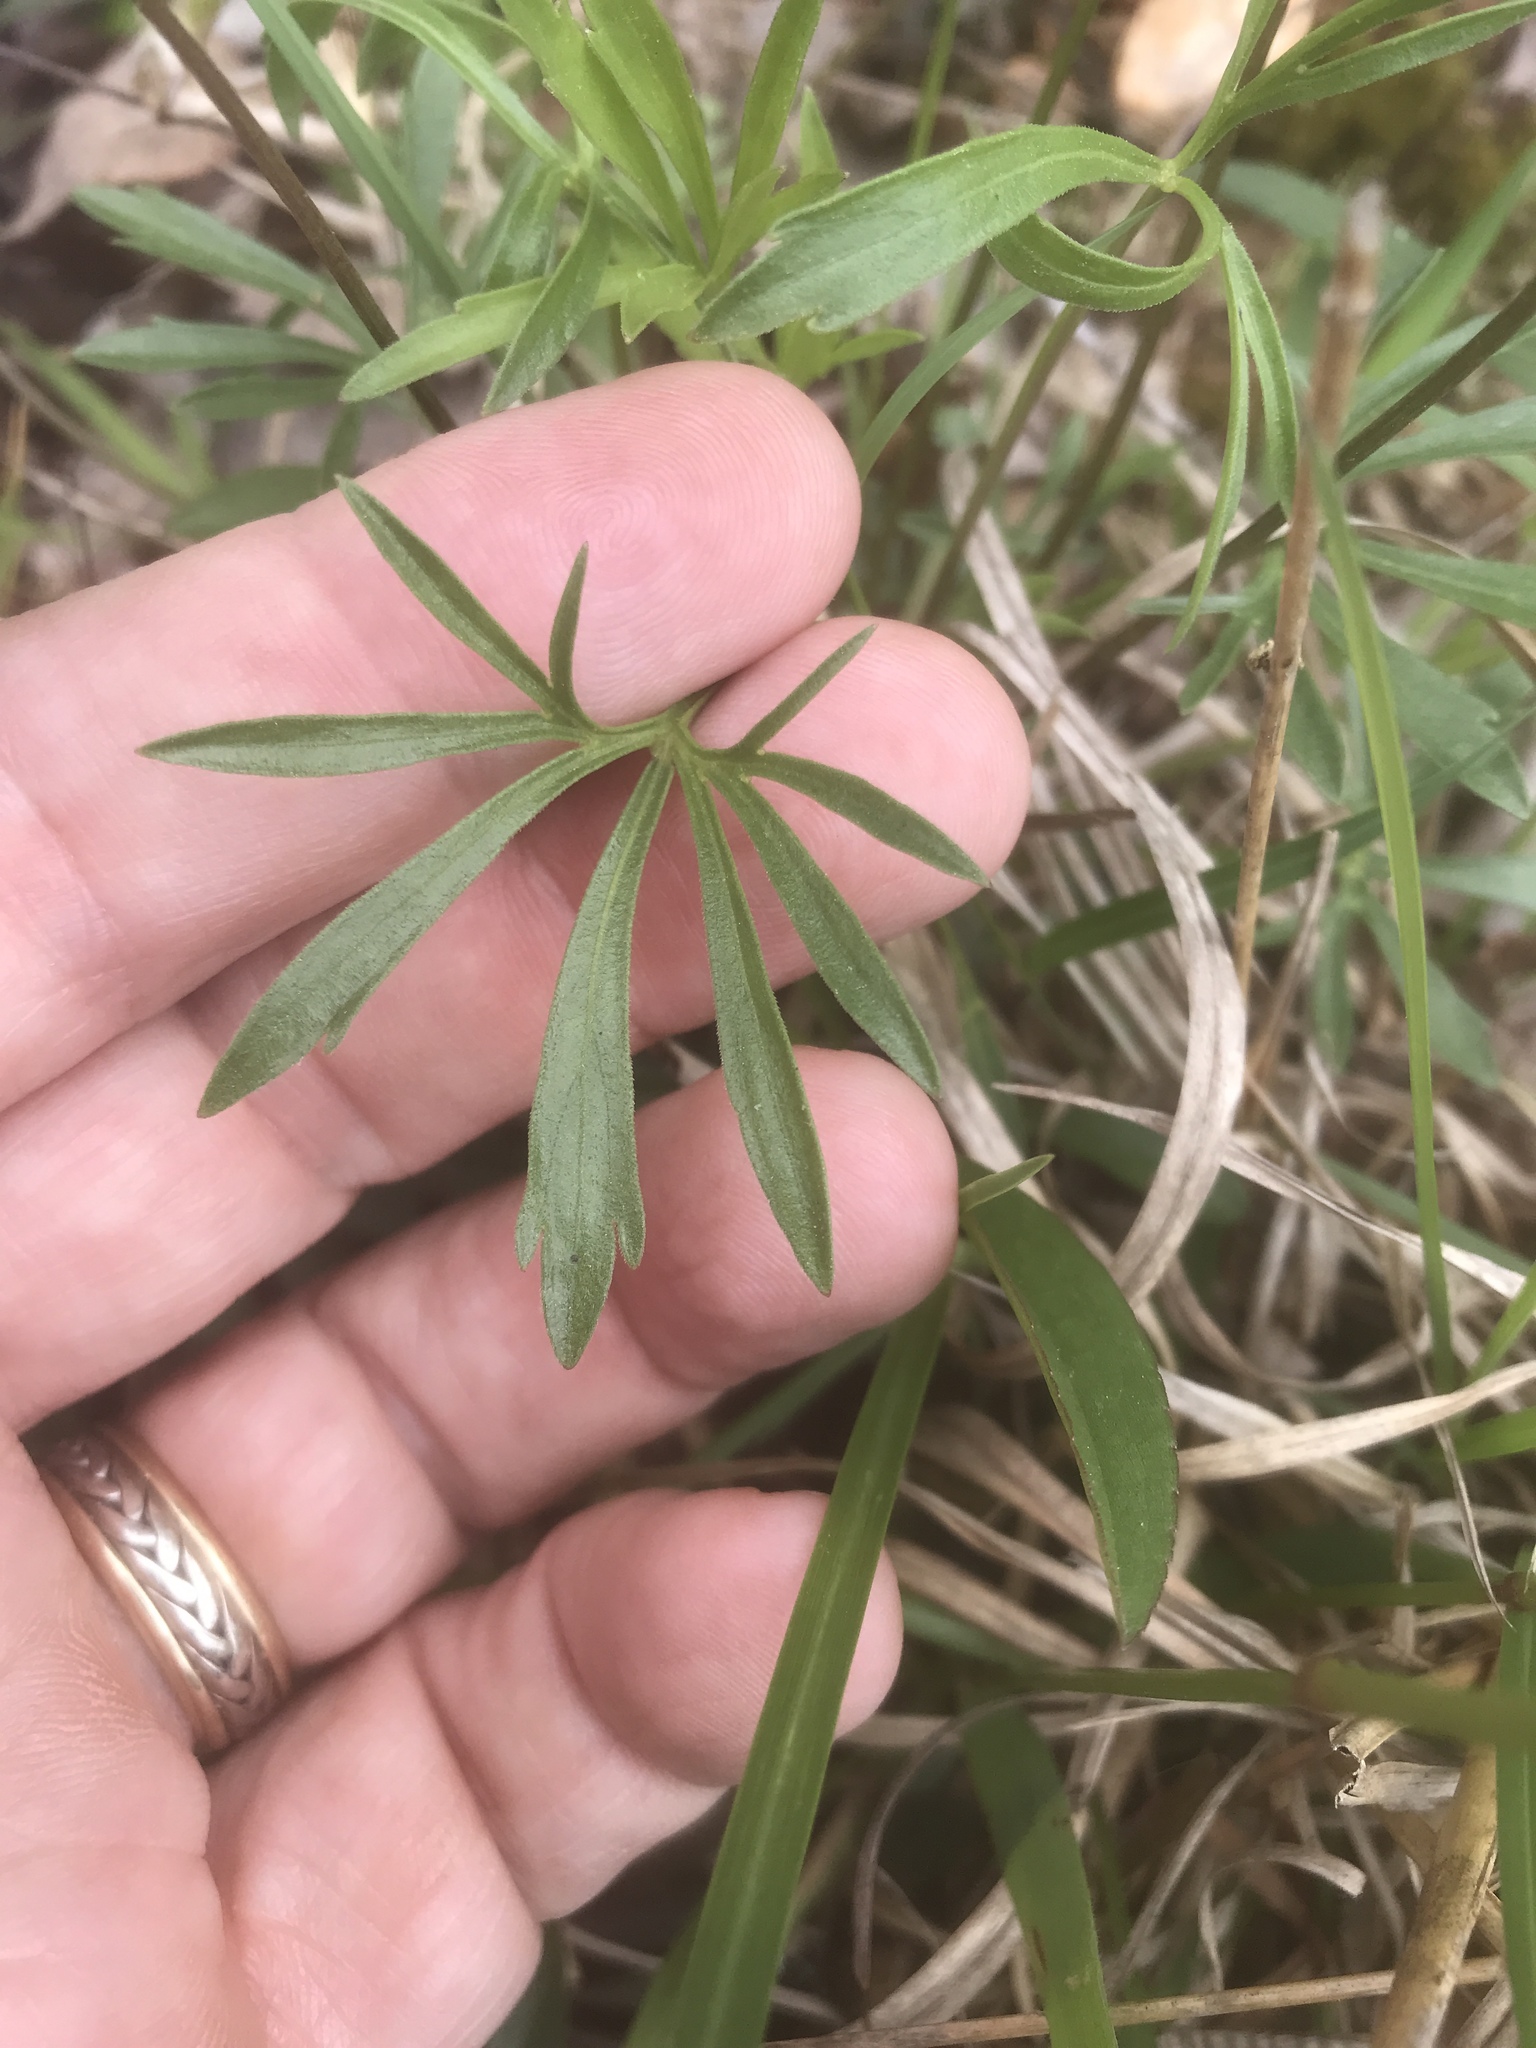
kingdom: Plantae
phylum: Tracheophyta
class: Magnoliopsida
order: Malpighiales
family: Violaceae
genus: Viola
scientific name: Viola pedata
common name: Pansy violet
